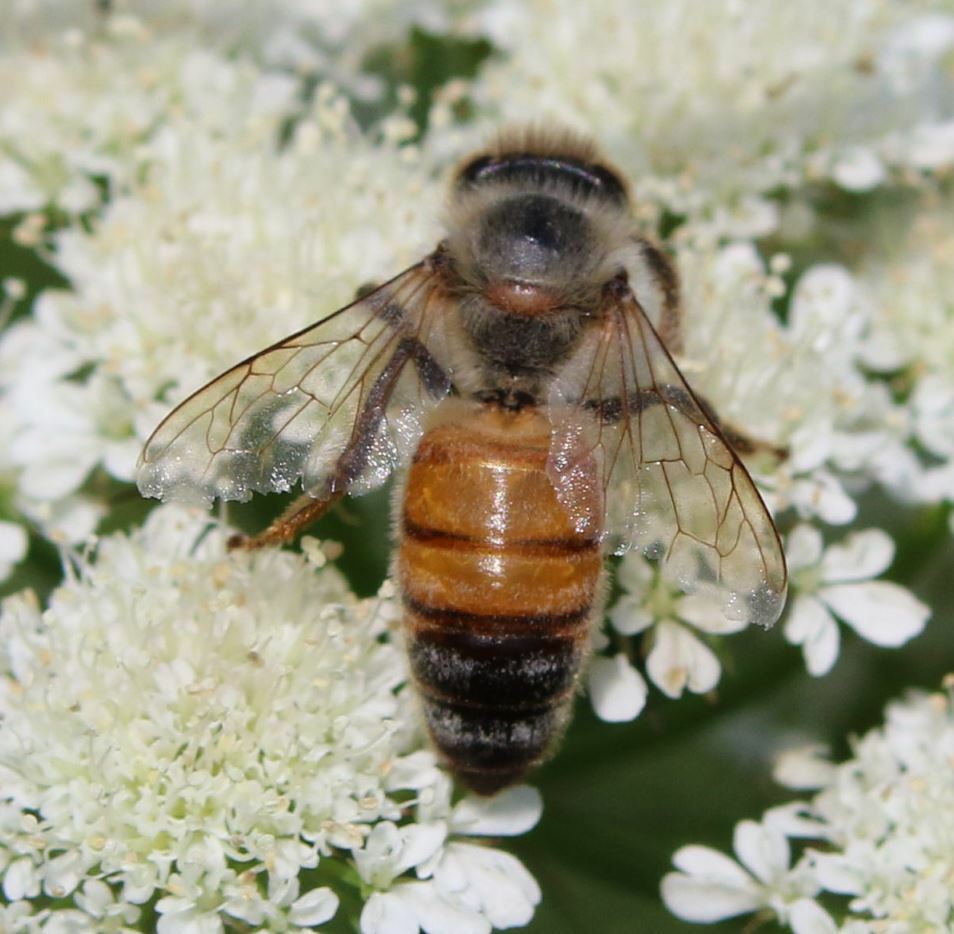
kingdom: Animalia
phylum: Arthropoda
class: Insecta
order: Hymenoptera
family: Apidae
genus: Apis
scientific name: Apis mellifera
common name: Honey bee
